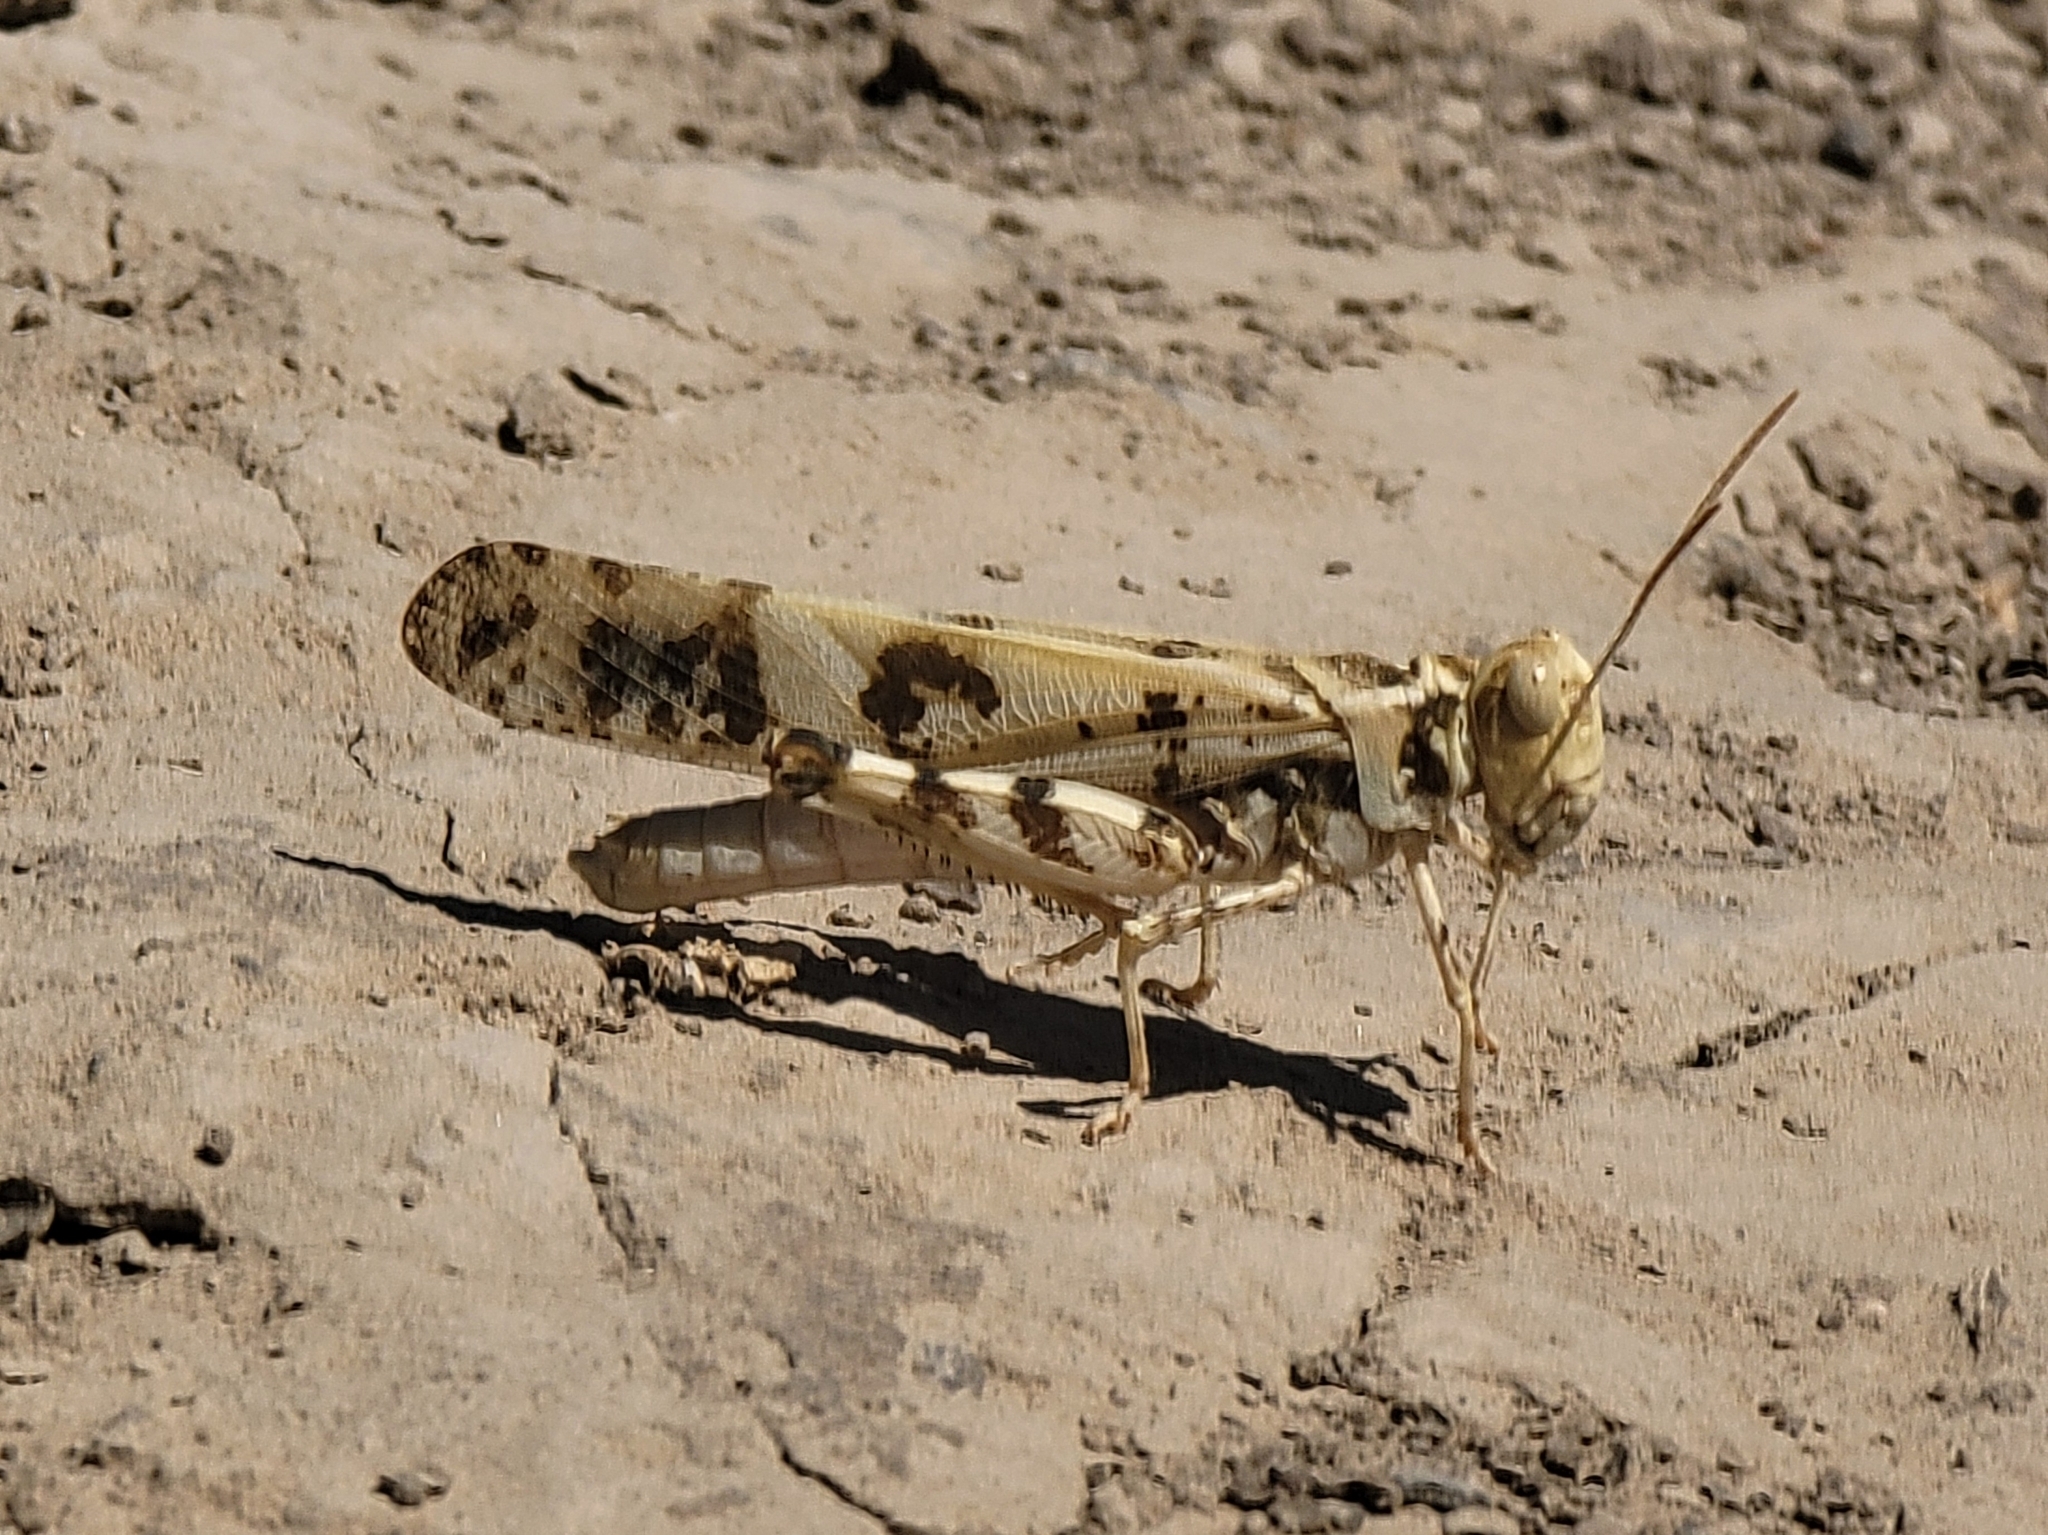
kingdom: Animalia
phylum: Arthropoda
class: Insecta
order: Orthoptera
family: Acrididae
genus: Dissosteira
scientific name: Dissosteira spurcata
